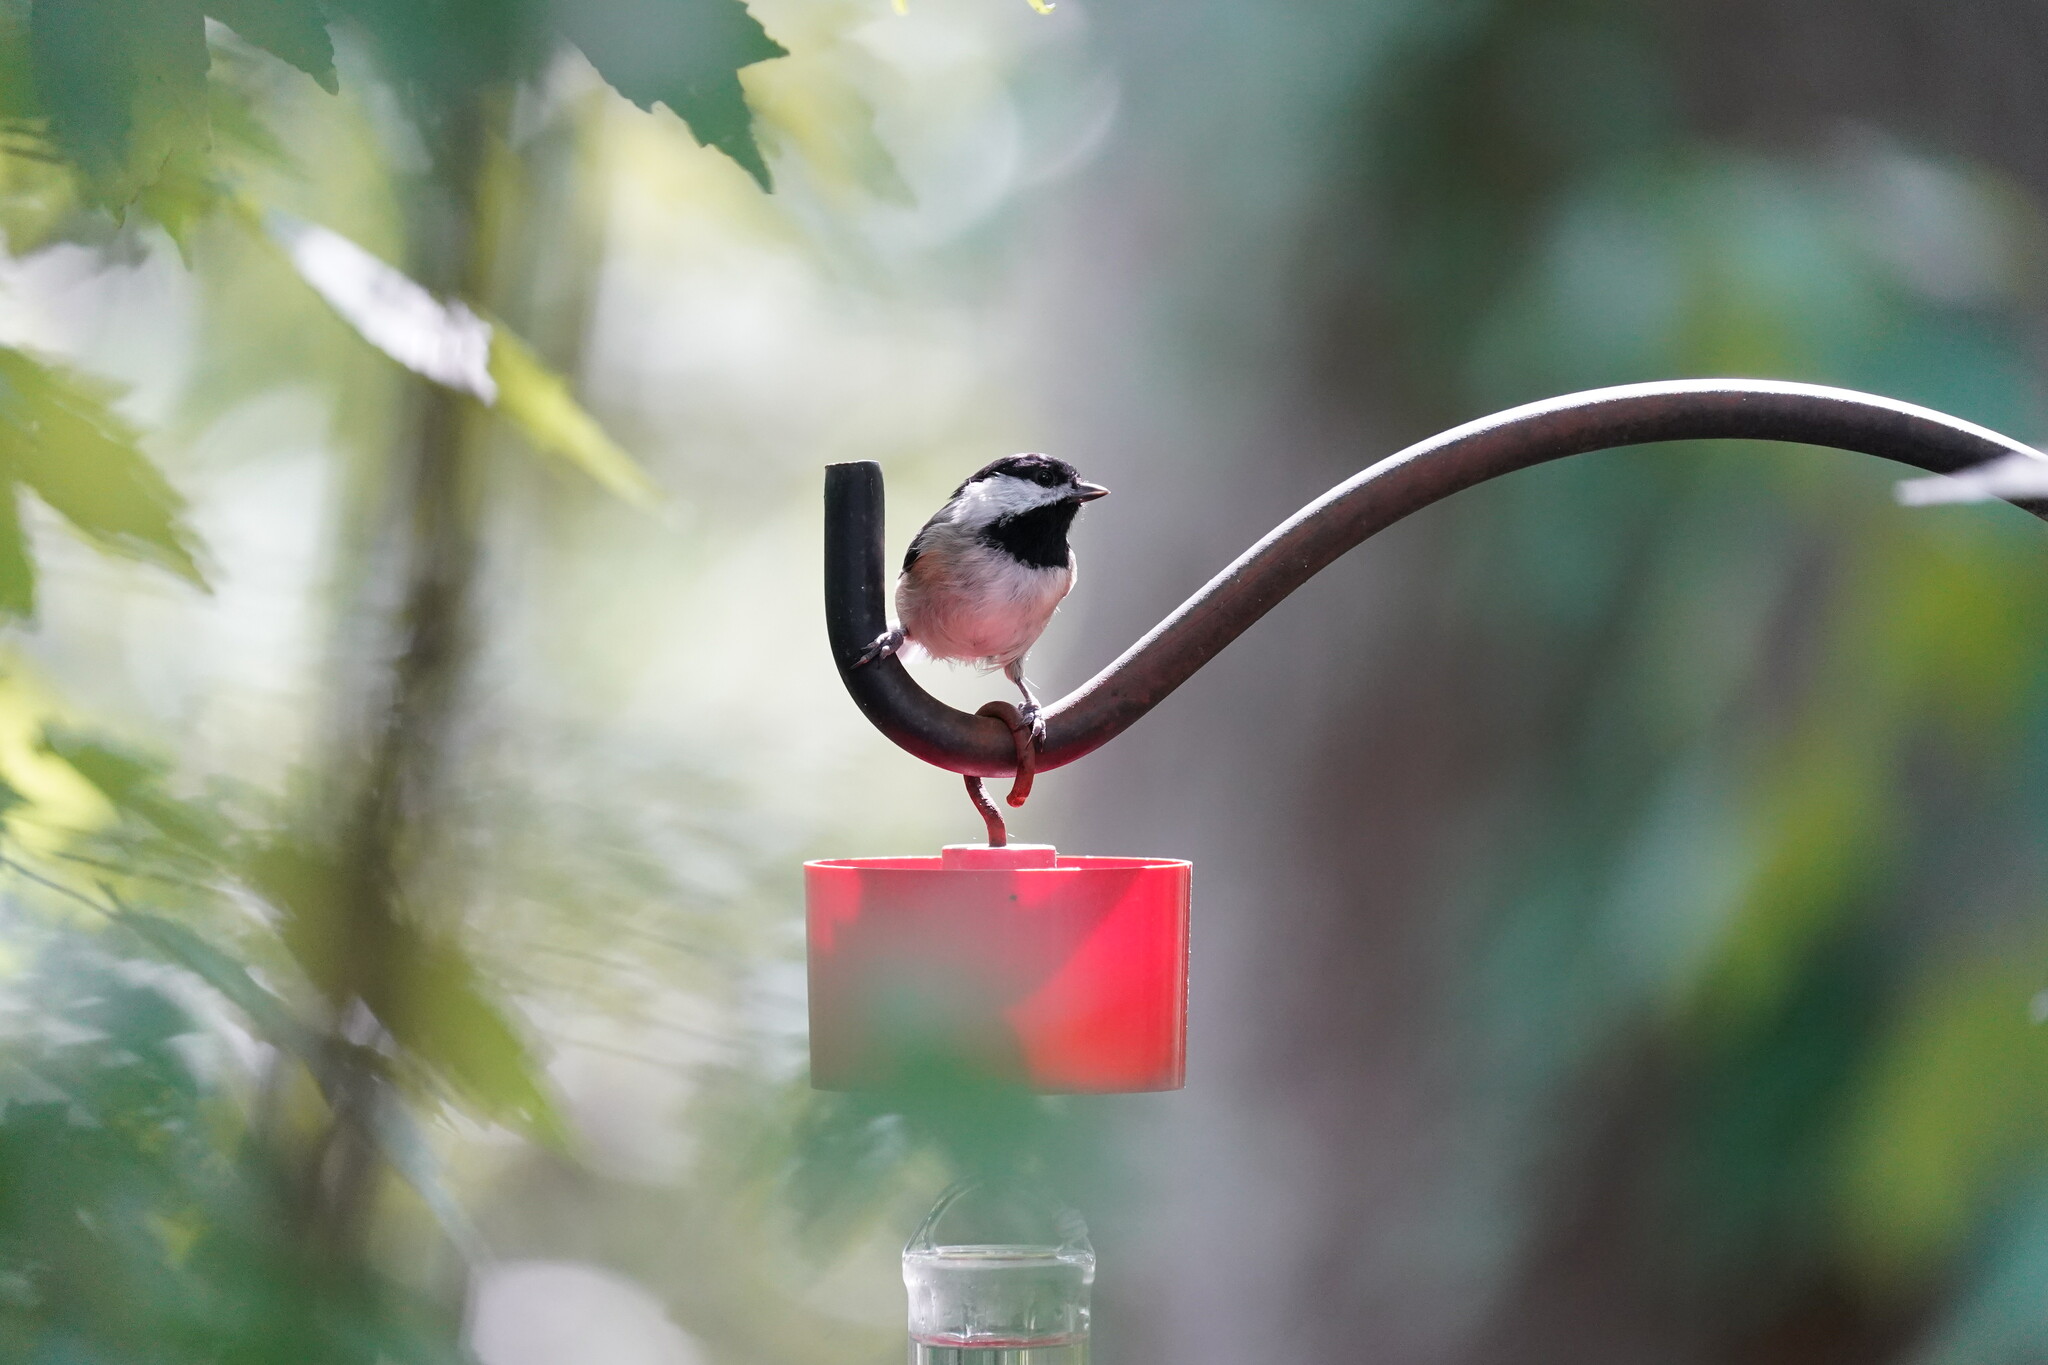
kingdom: Animalia
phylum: Chordata
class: Aves
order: Passeriformes
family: Paridae
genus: Poecile
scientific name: Poecile carolinensis
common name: Carolina chickadee
